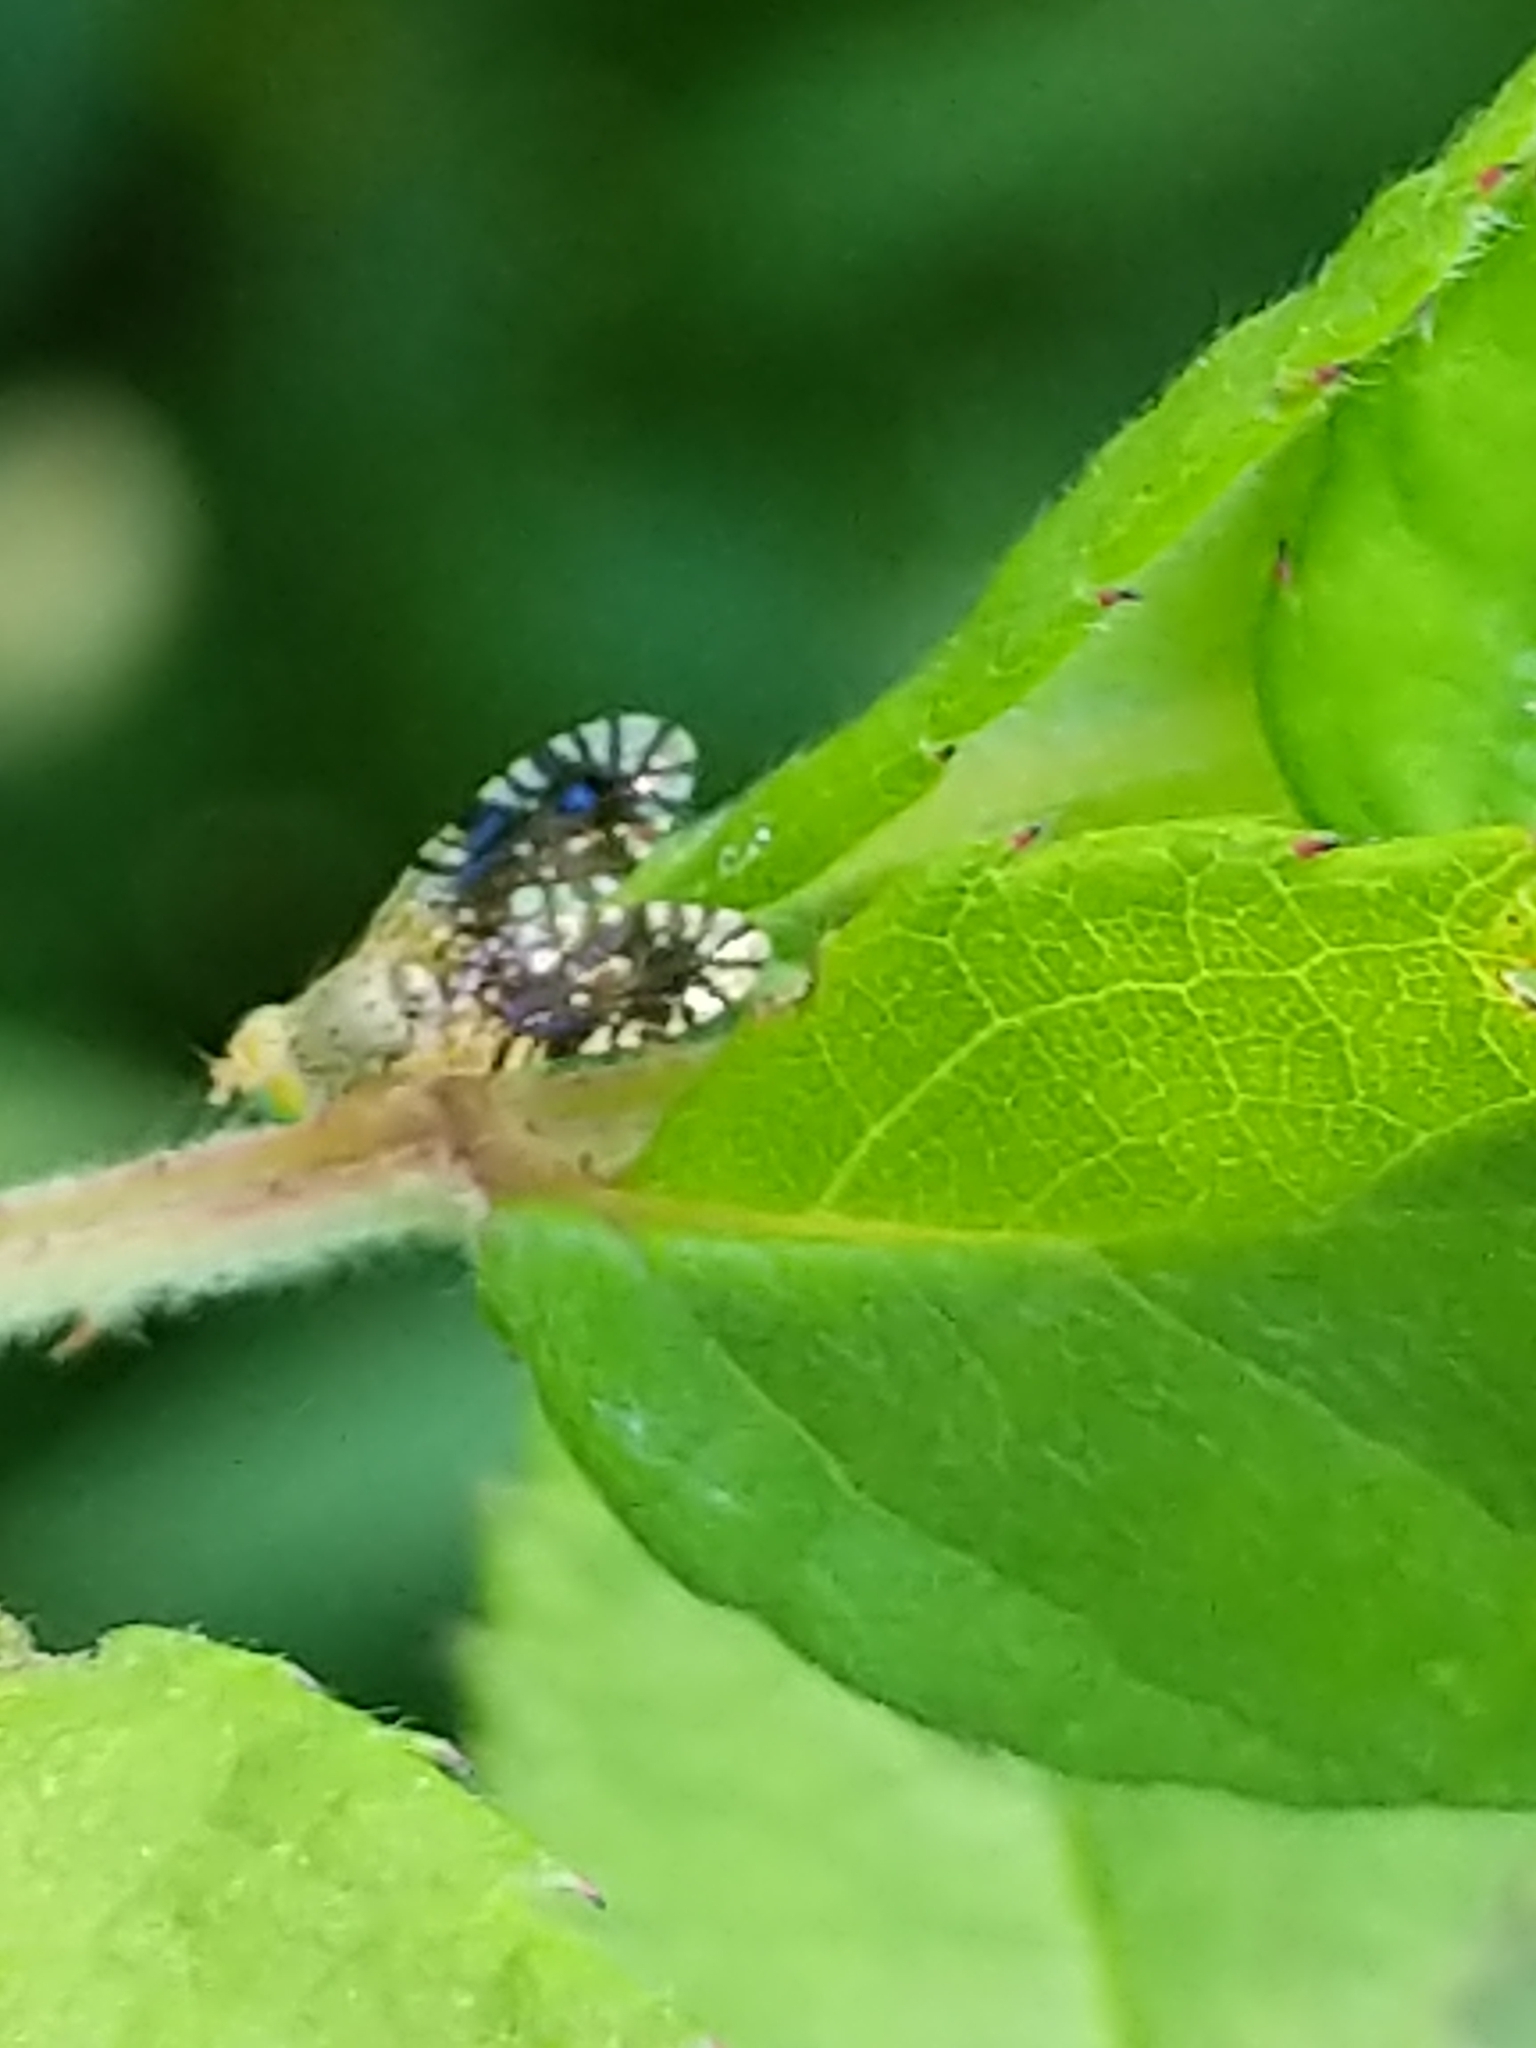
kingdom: Animalia
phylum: Arthropoda
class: Insecta
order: Diptera
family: Tephritidae
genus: Euaresta
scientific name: Euaresta bella
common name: Common ragweed fruit fly
